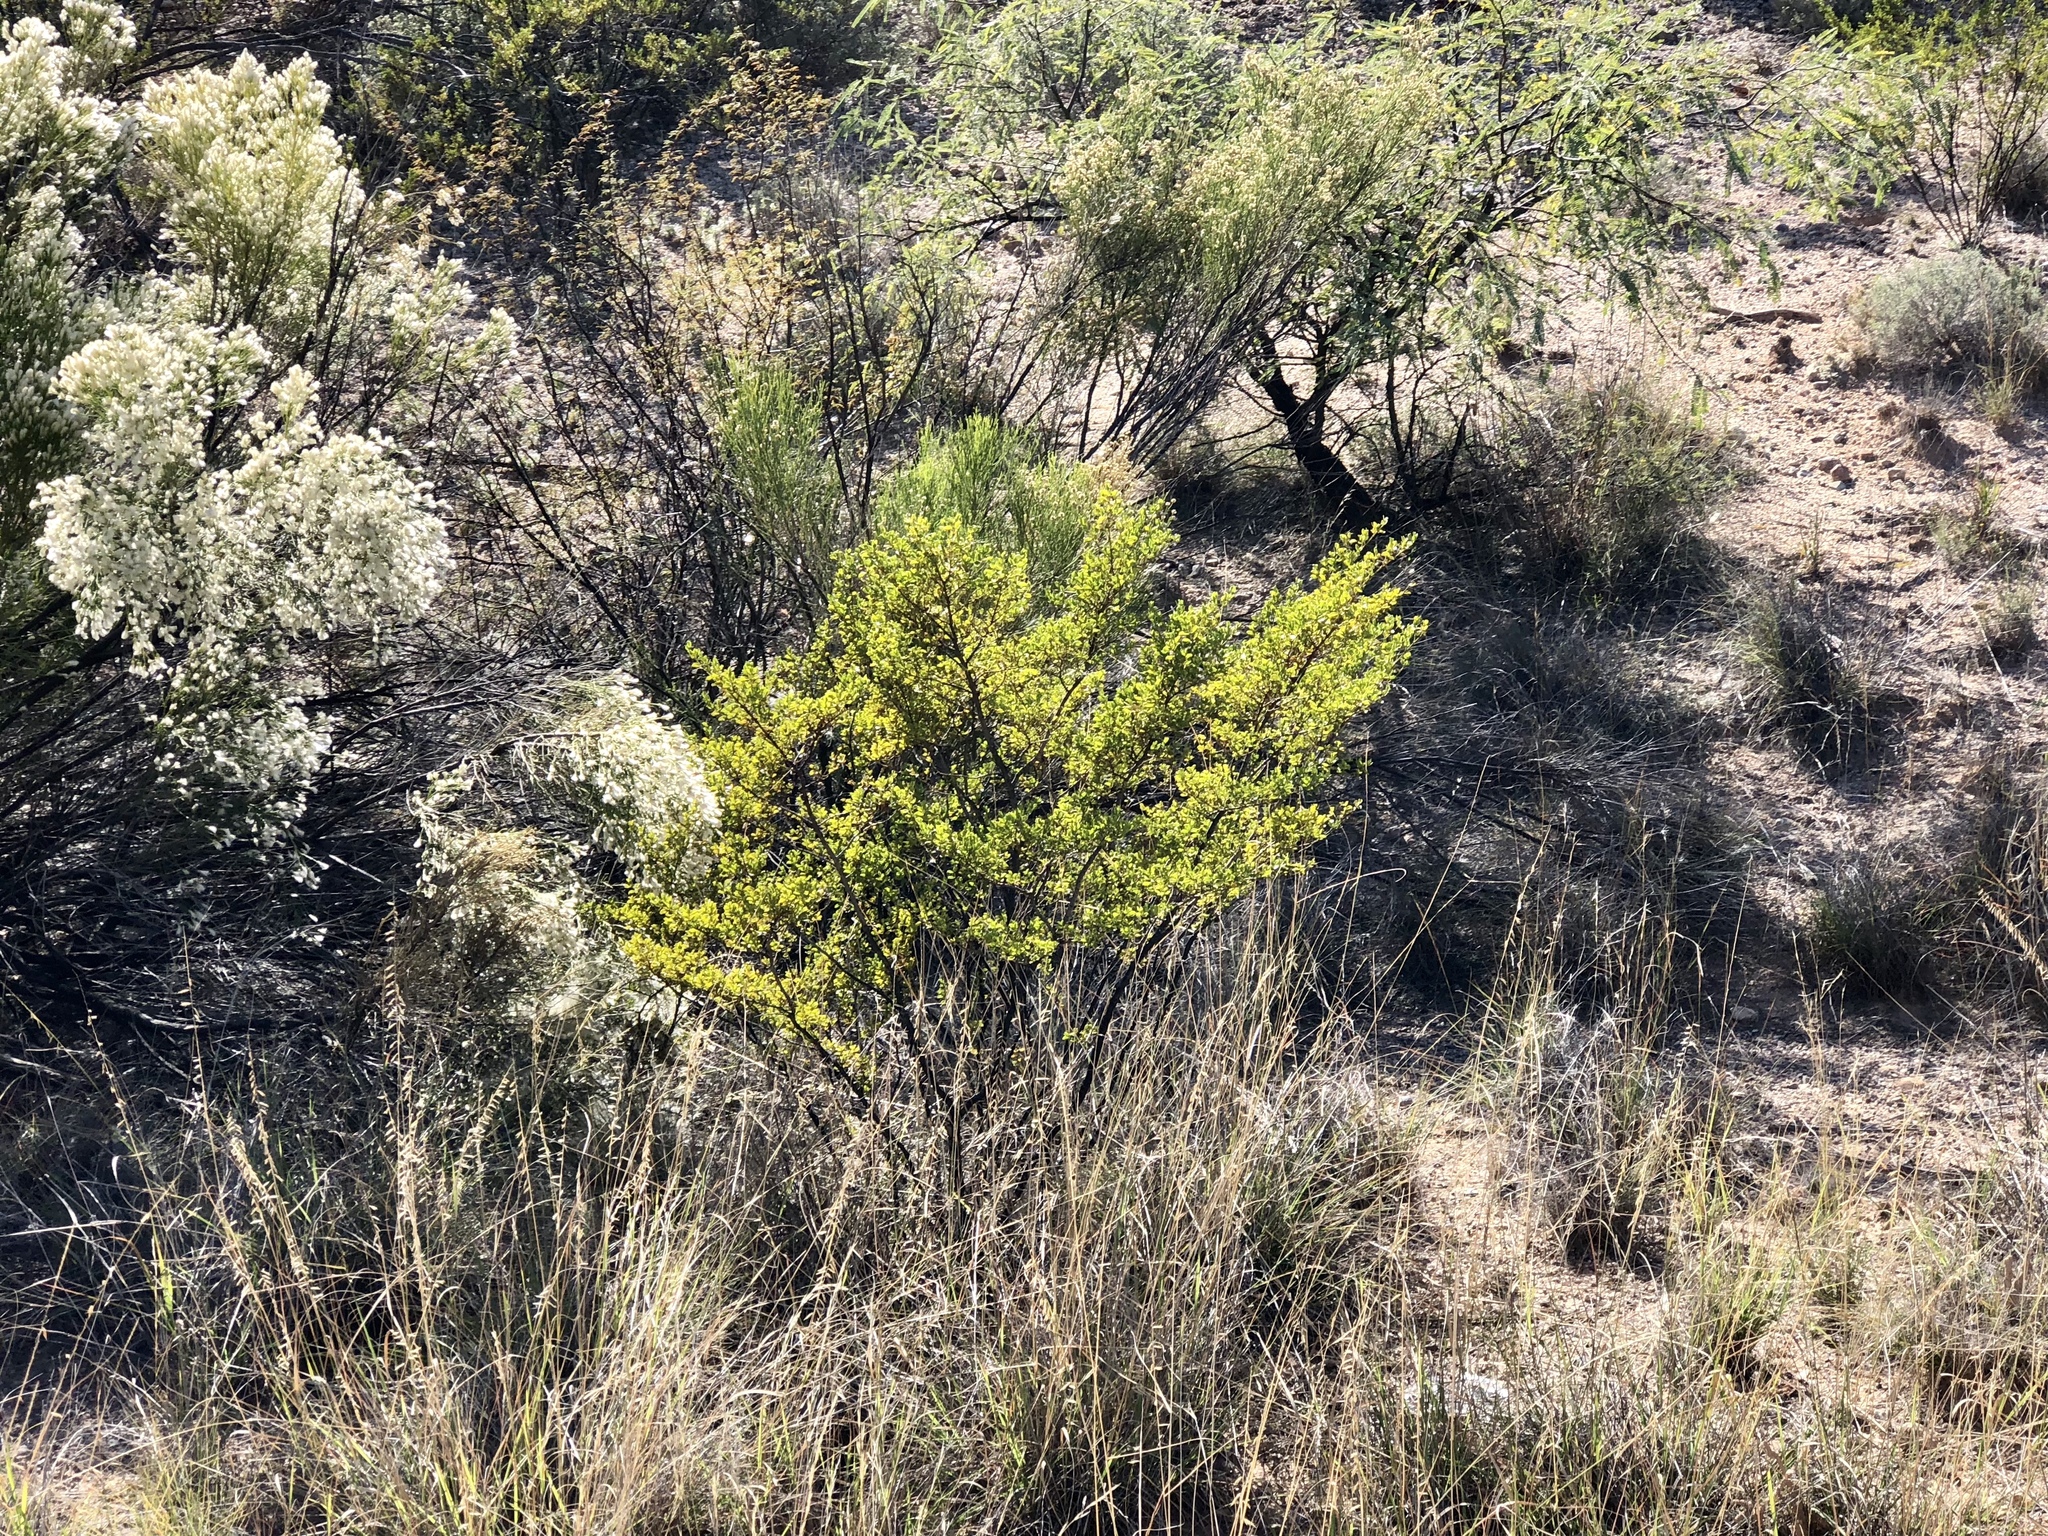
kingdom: Plantae
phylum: Tracheophyta
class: Magnoliopsida
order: Zygophyllales
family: Zygophyllaceae
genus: Larrea
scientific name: Larrea tridentata
